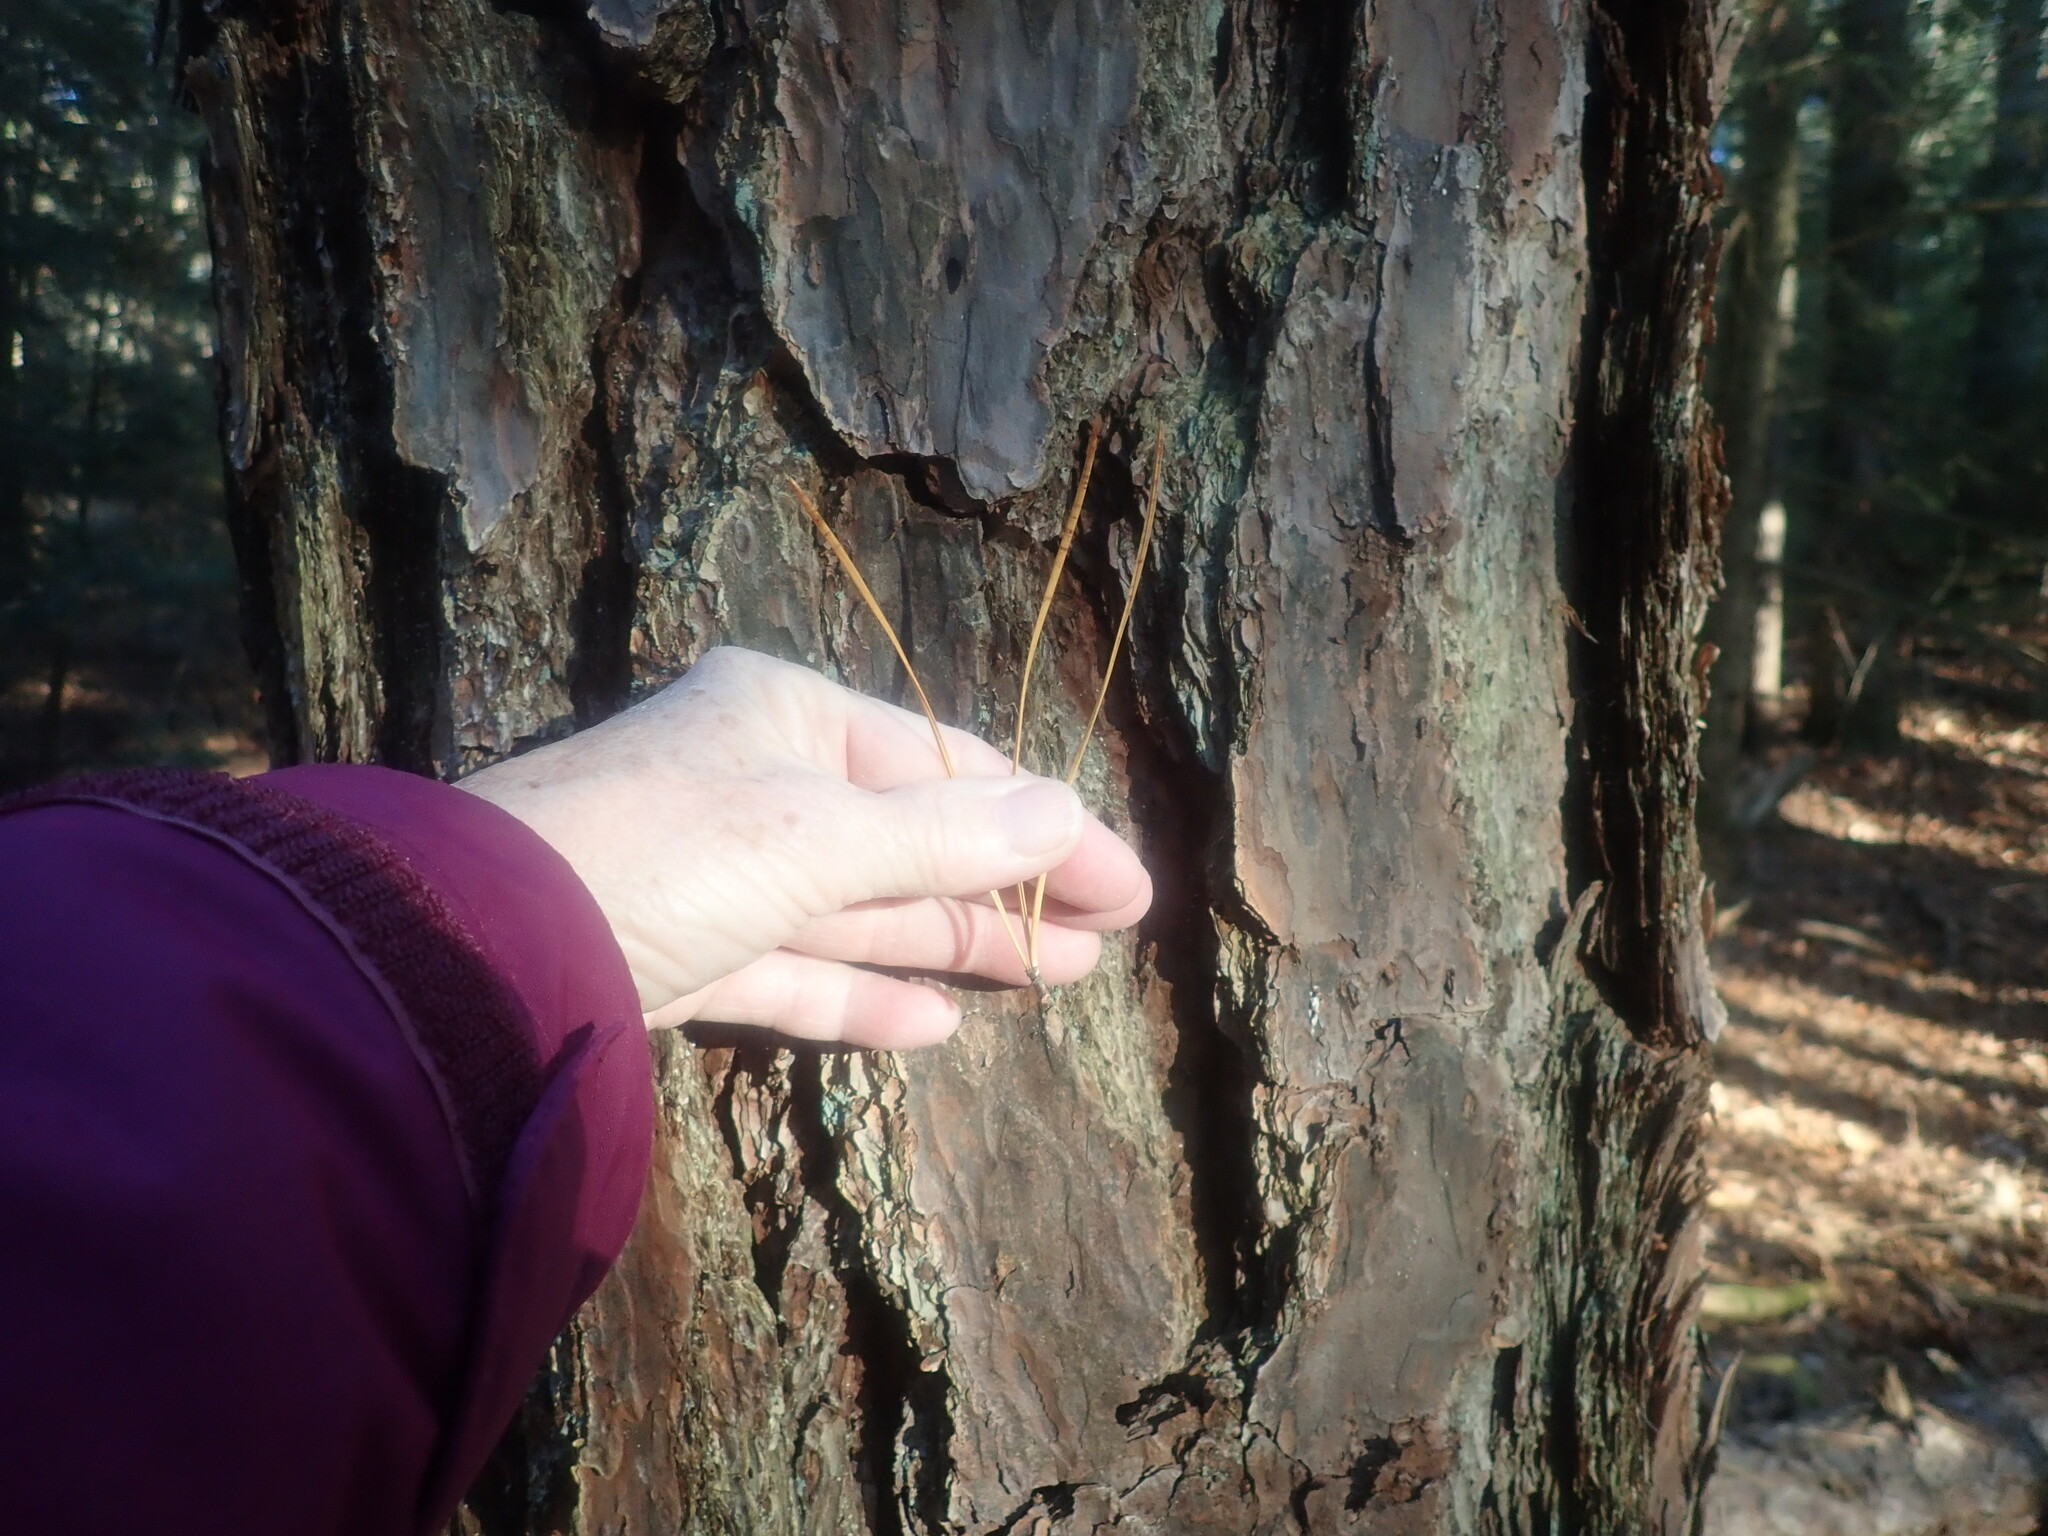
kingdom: Plantae
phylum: Tracheophyta
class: Pinopsida
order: Pinales
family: Pinaceae
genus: Pinus
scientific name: Pinus rigida
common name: Pitch pine
